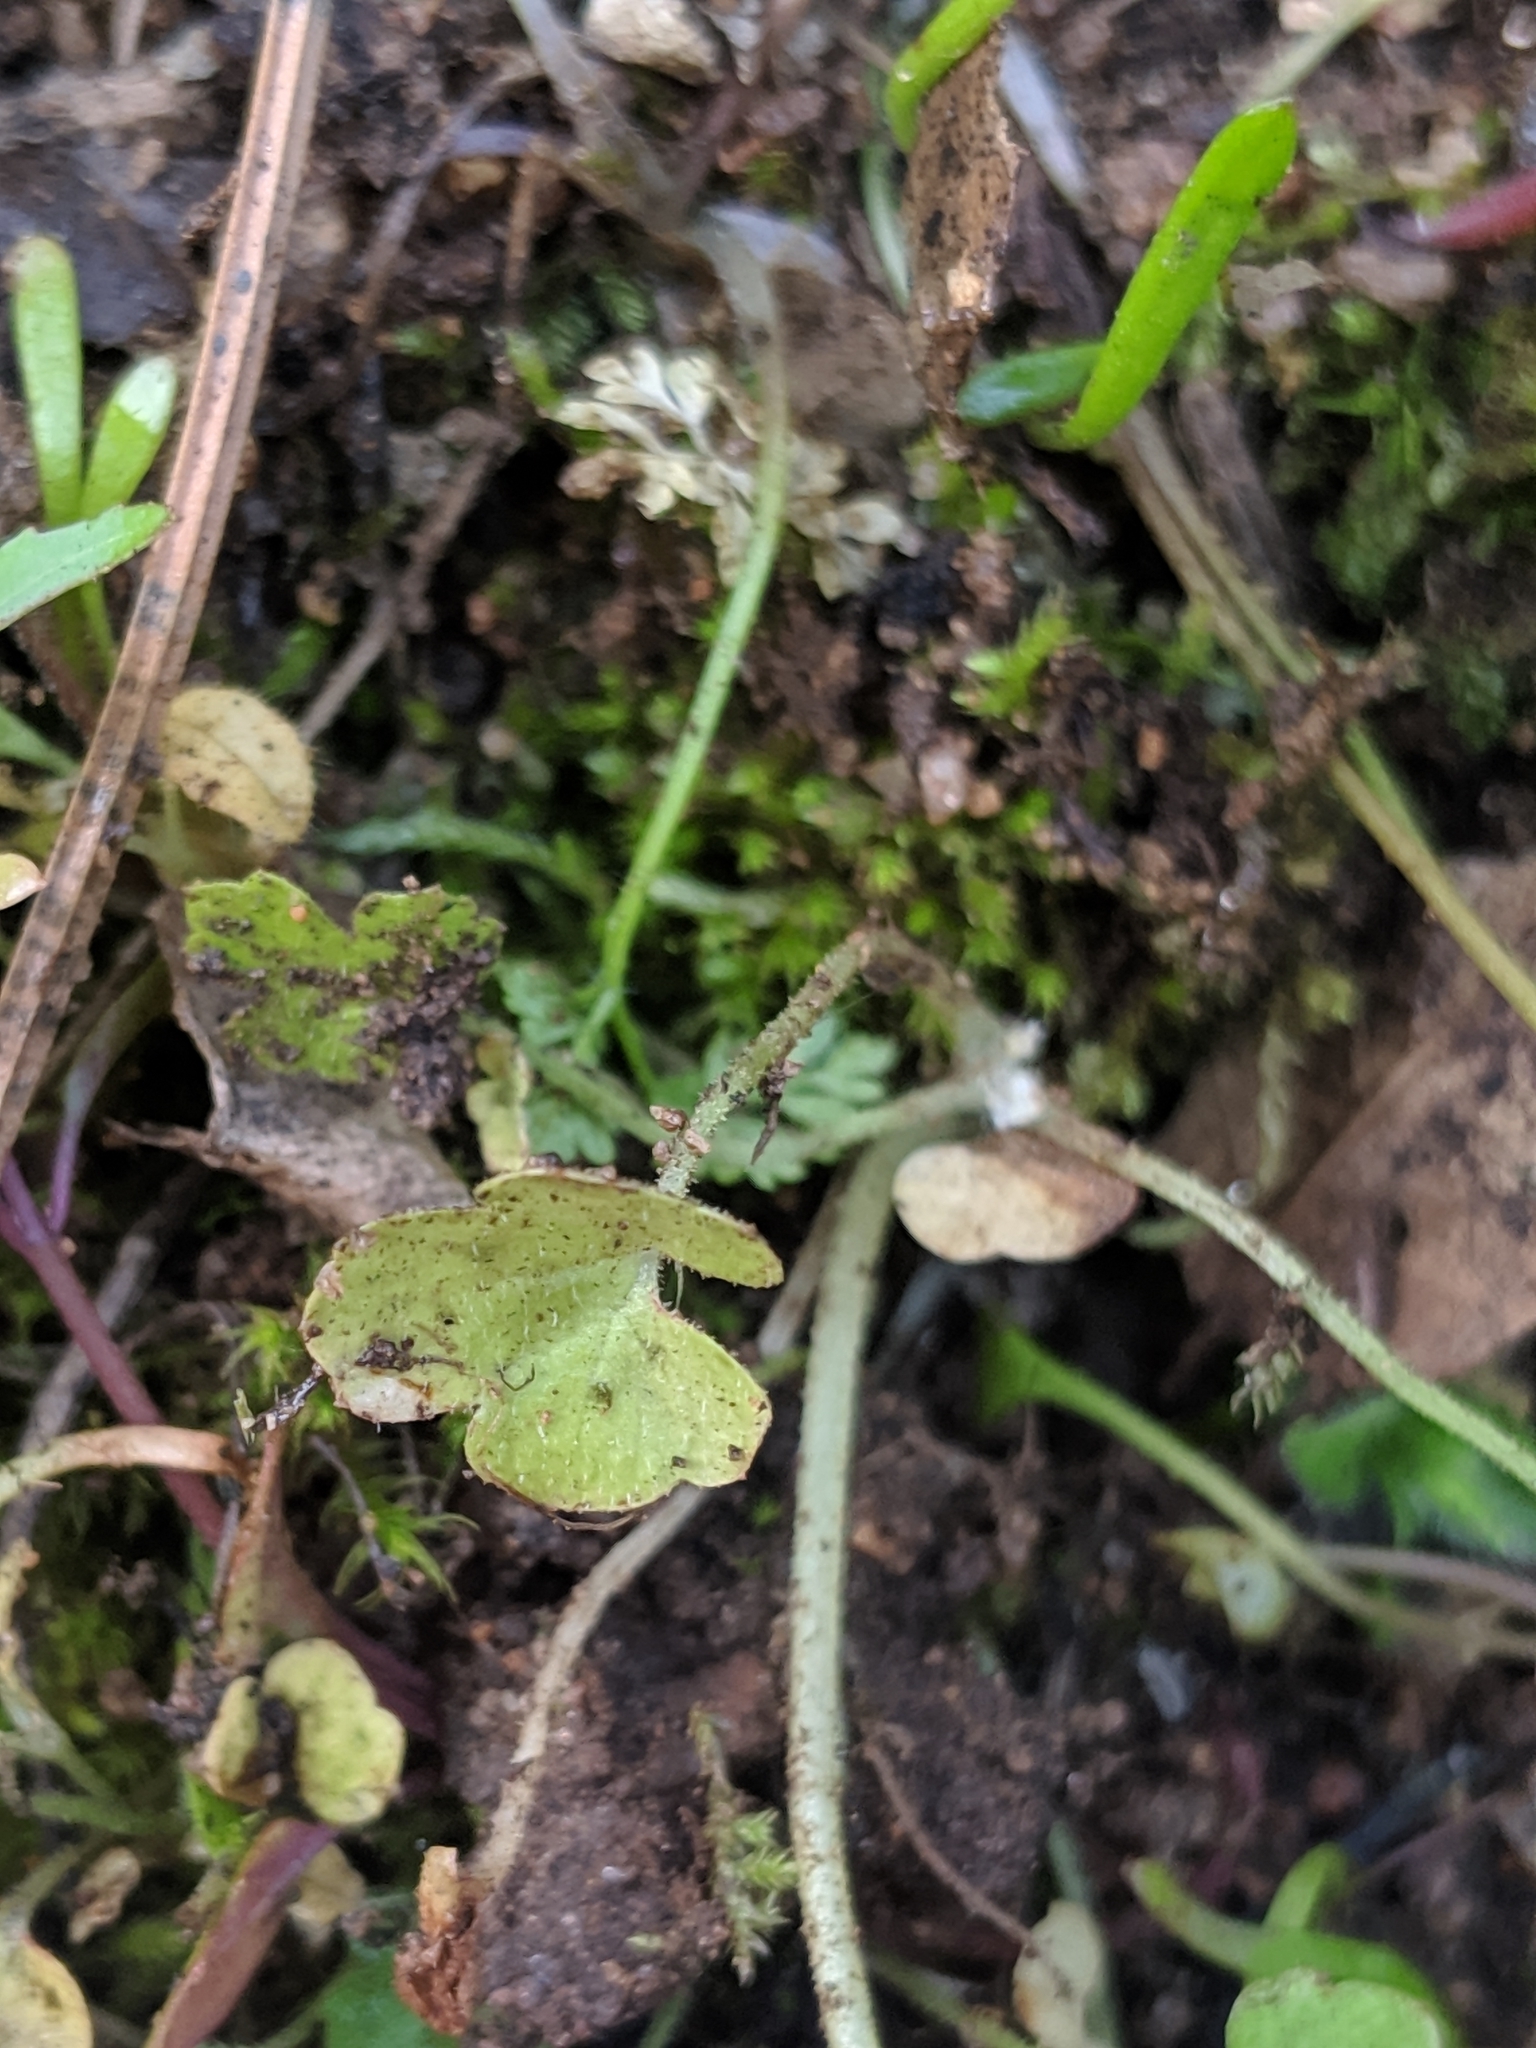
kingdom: Plantae
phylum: Tracheophyta
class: Magnoliopsida
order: Saxifragales
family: Saxifragaceae
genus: Lithophragma
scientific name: Lithophragma cymbalaria
